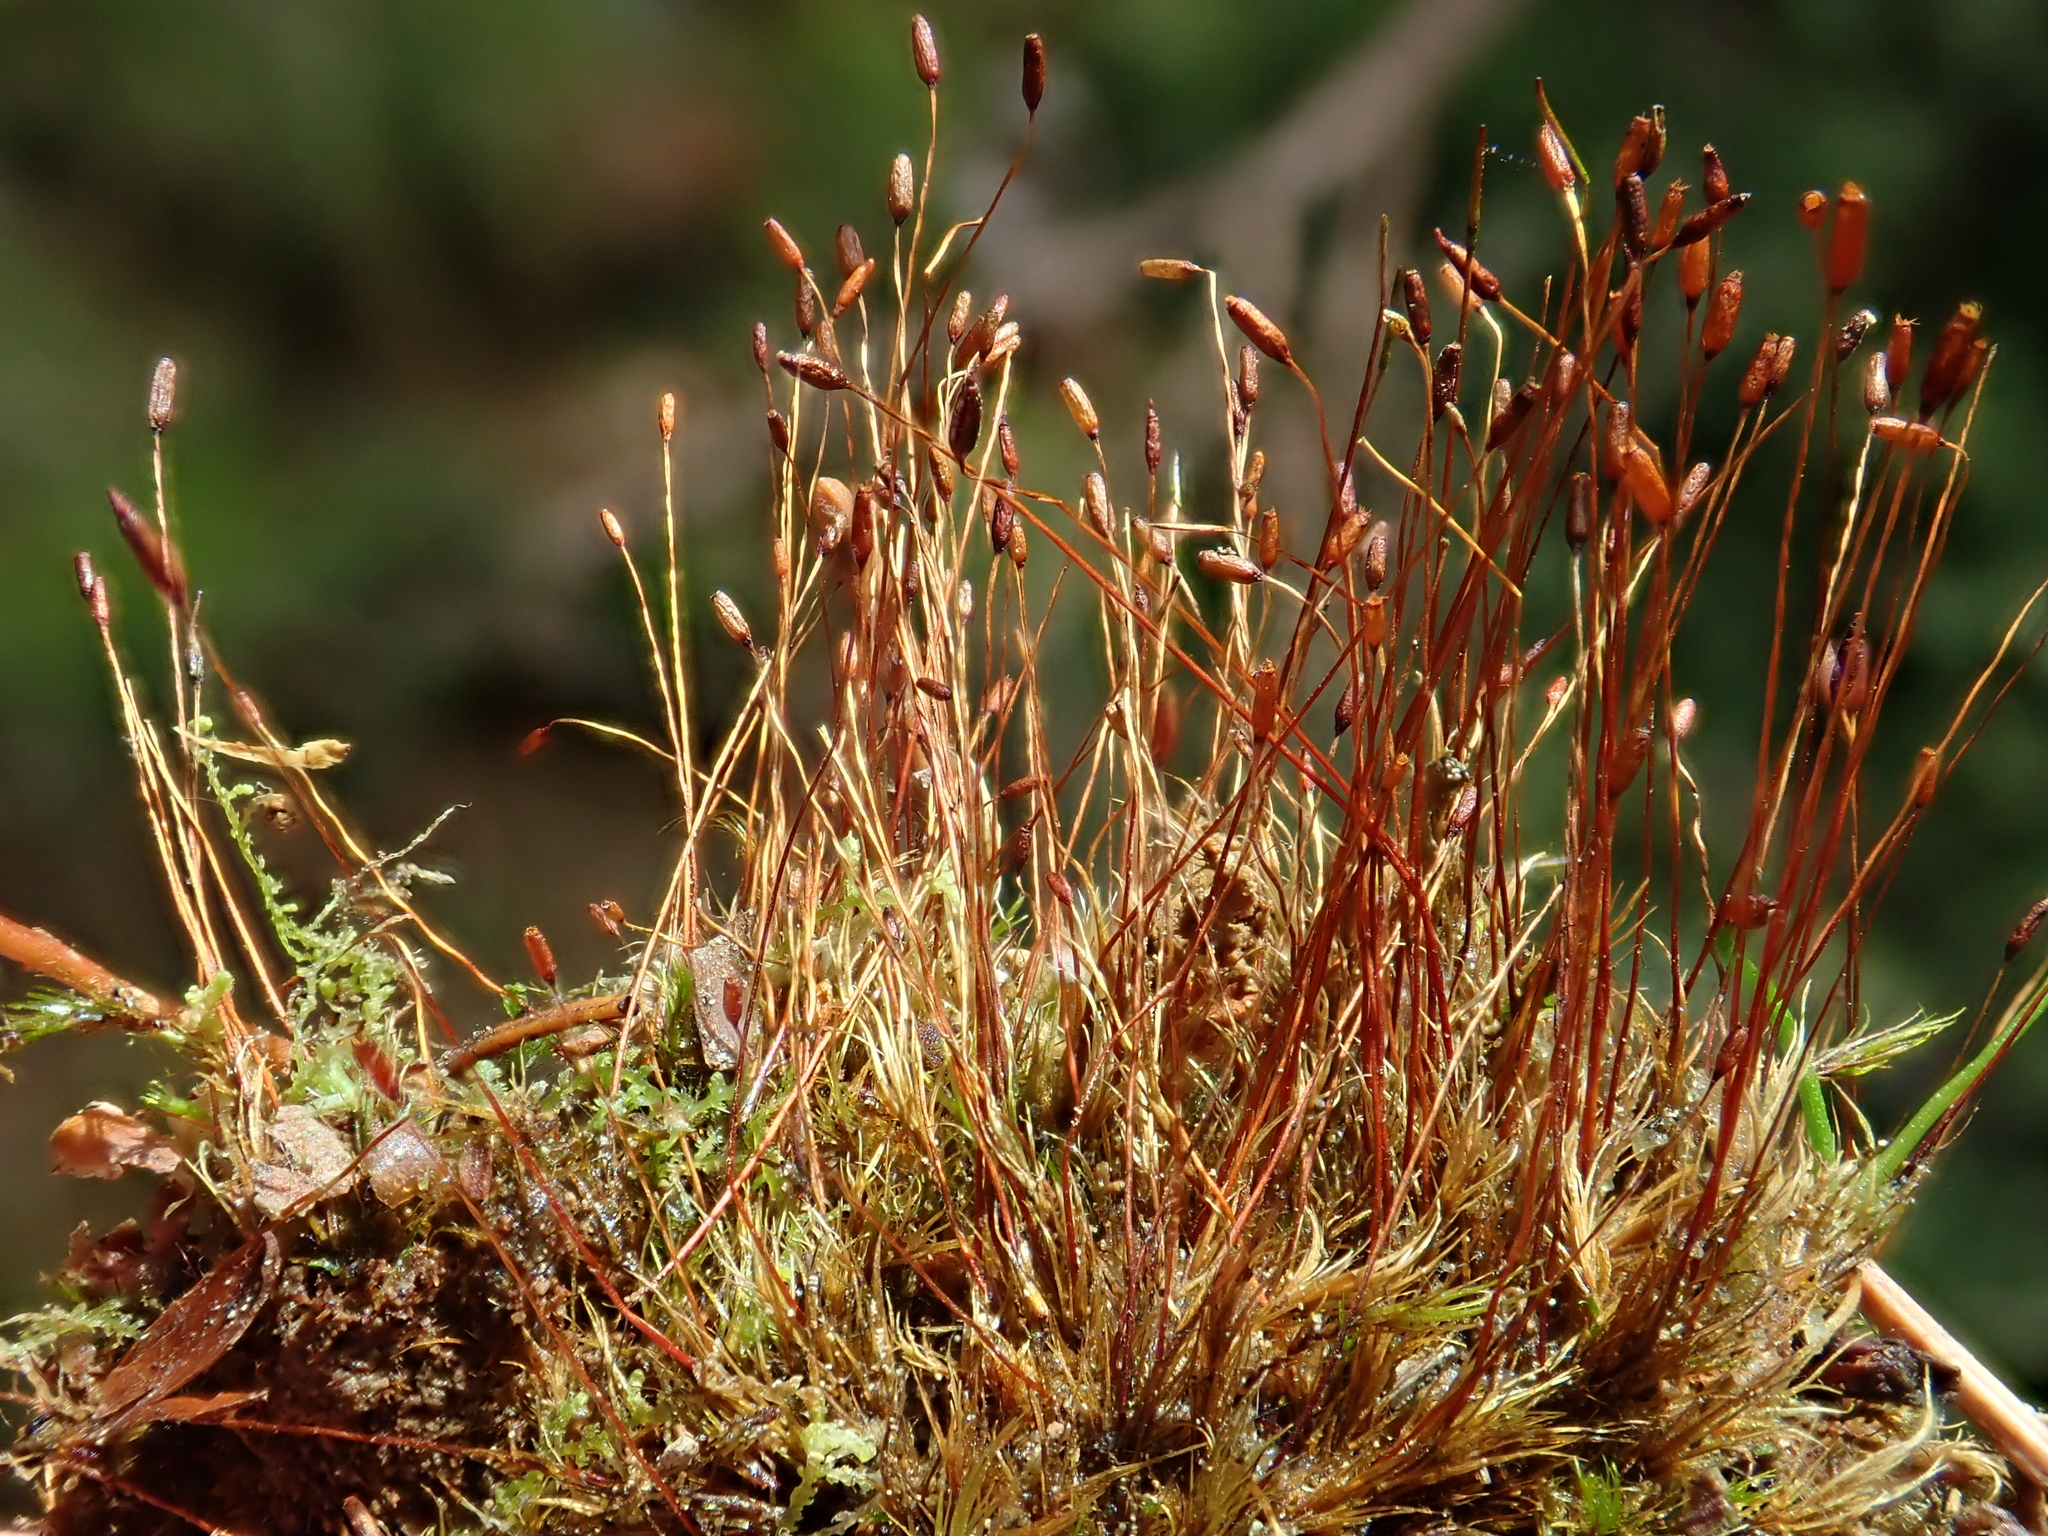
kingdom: Plantae
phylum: Bryophyta
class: Bryopsida
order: Dicranales
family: Ditrichaceae
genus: Ditrichum
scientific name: Ditrichum heteromallum
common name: Curve-leaved ditrichum
